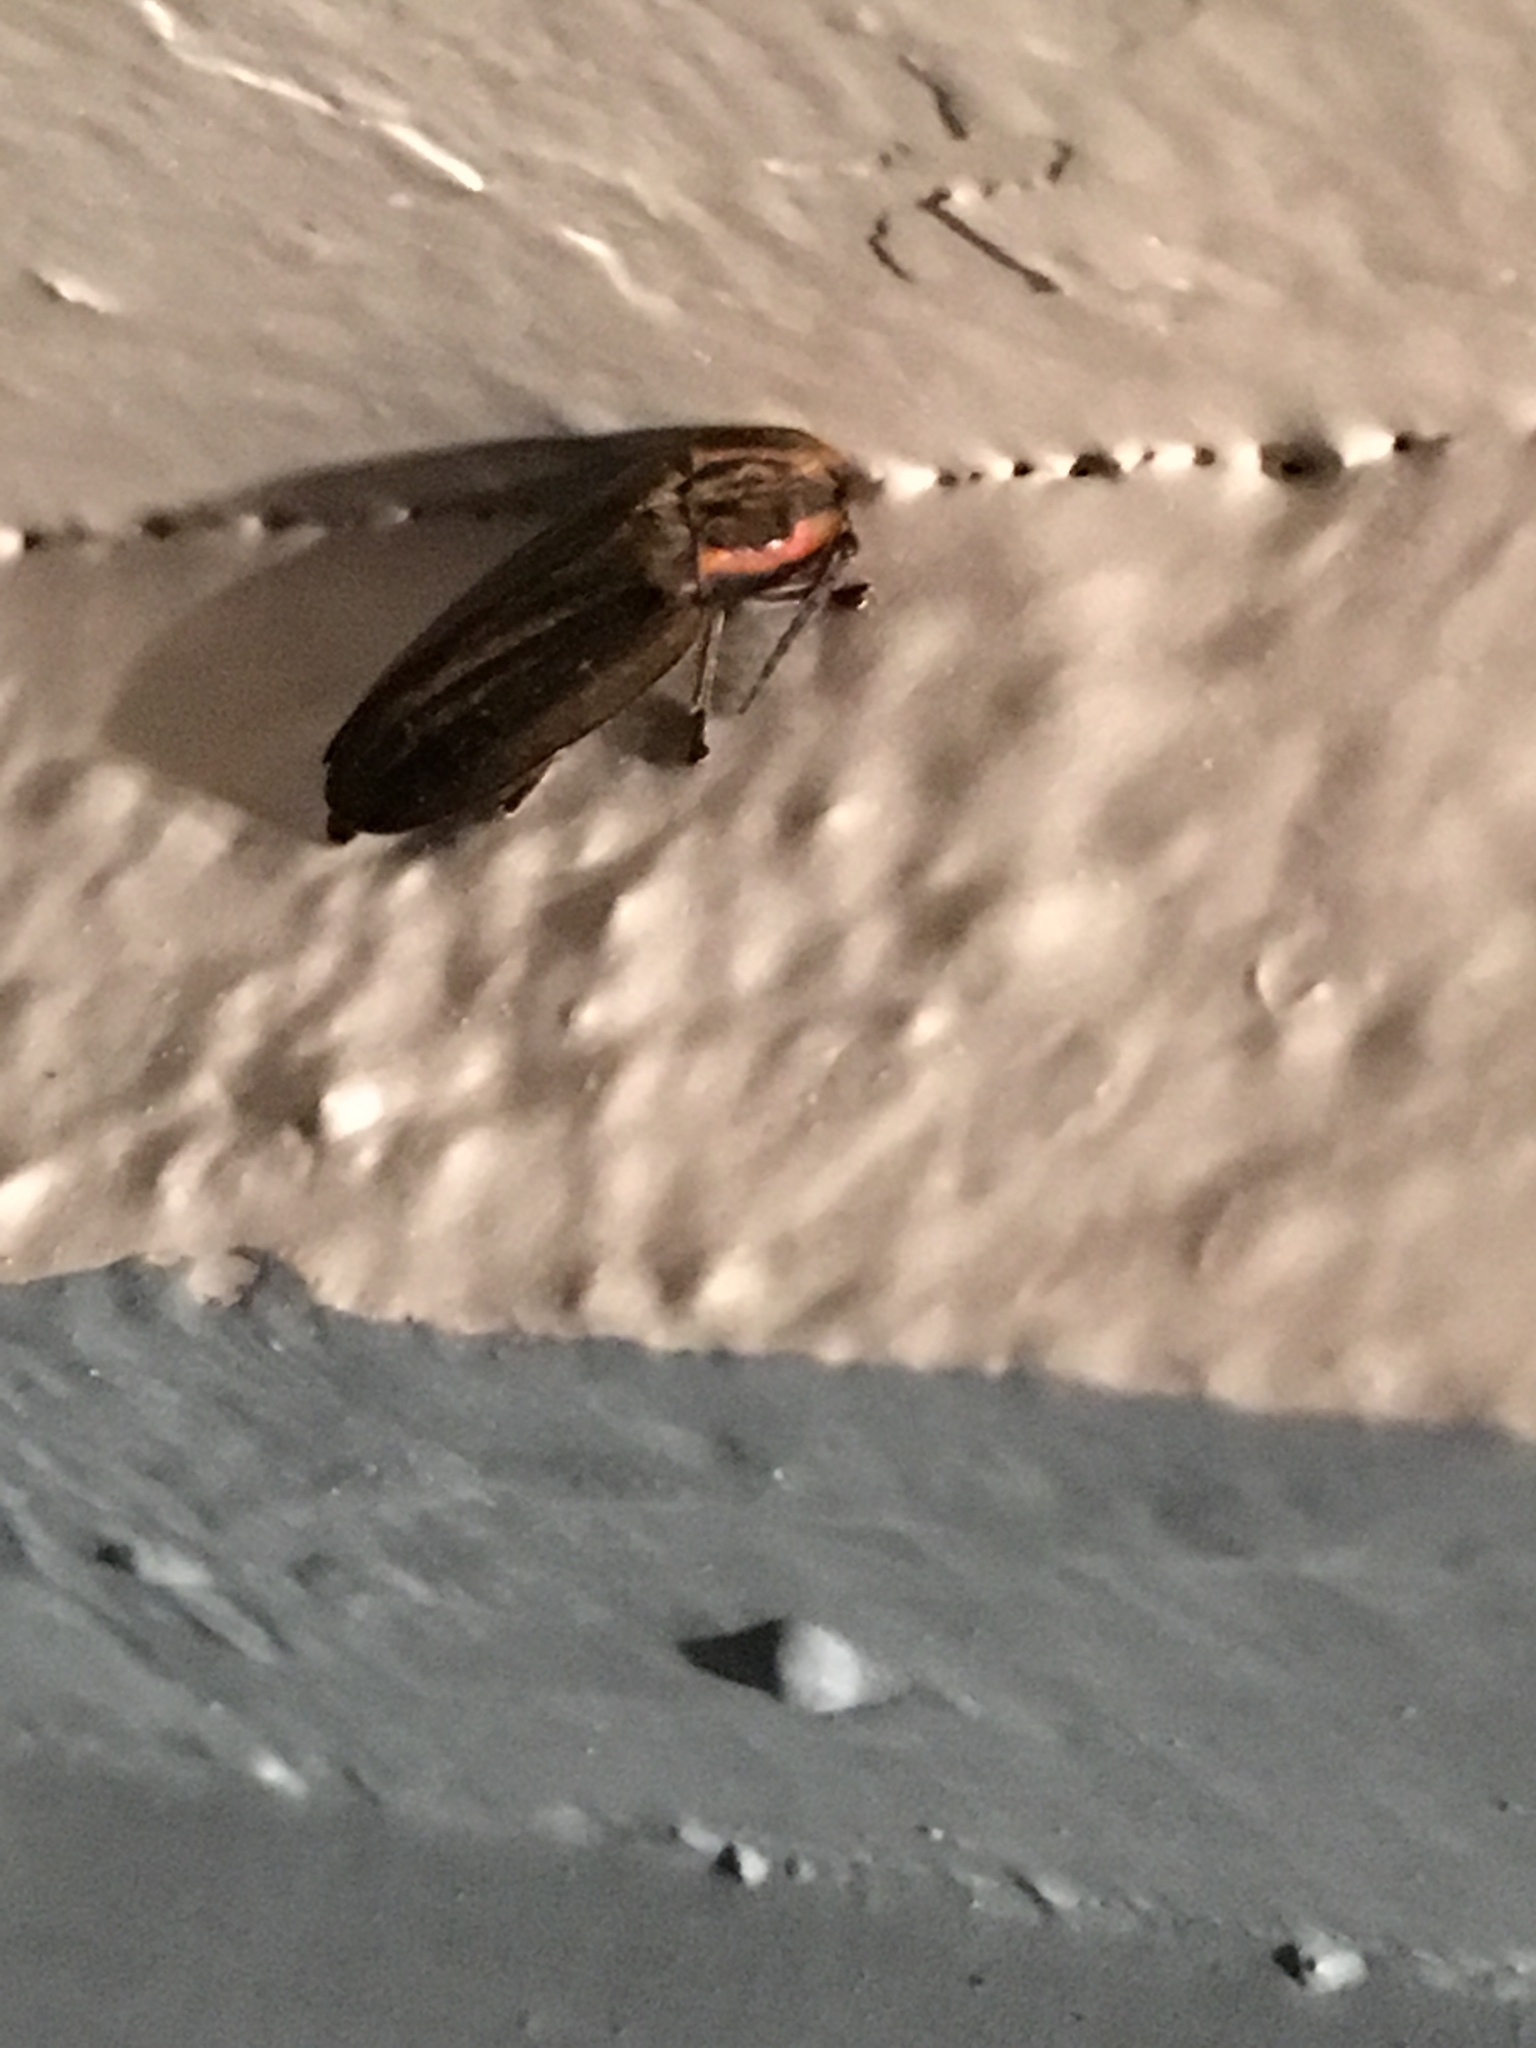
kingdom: Animalia
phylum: Arthropoda
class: Insecta
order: Coleoptera
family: Lampyridae
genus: Photinus
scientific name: Photinus corrusca
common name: Winter firefly
